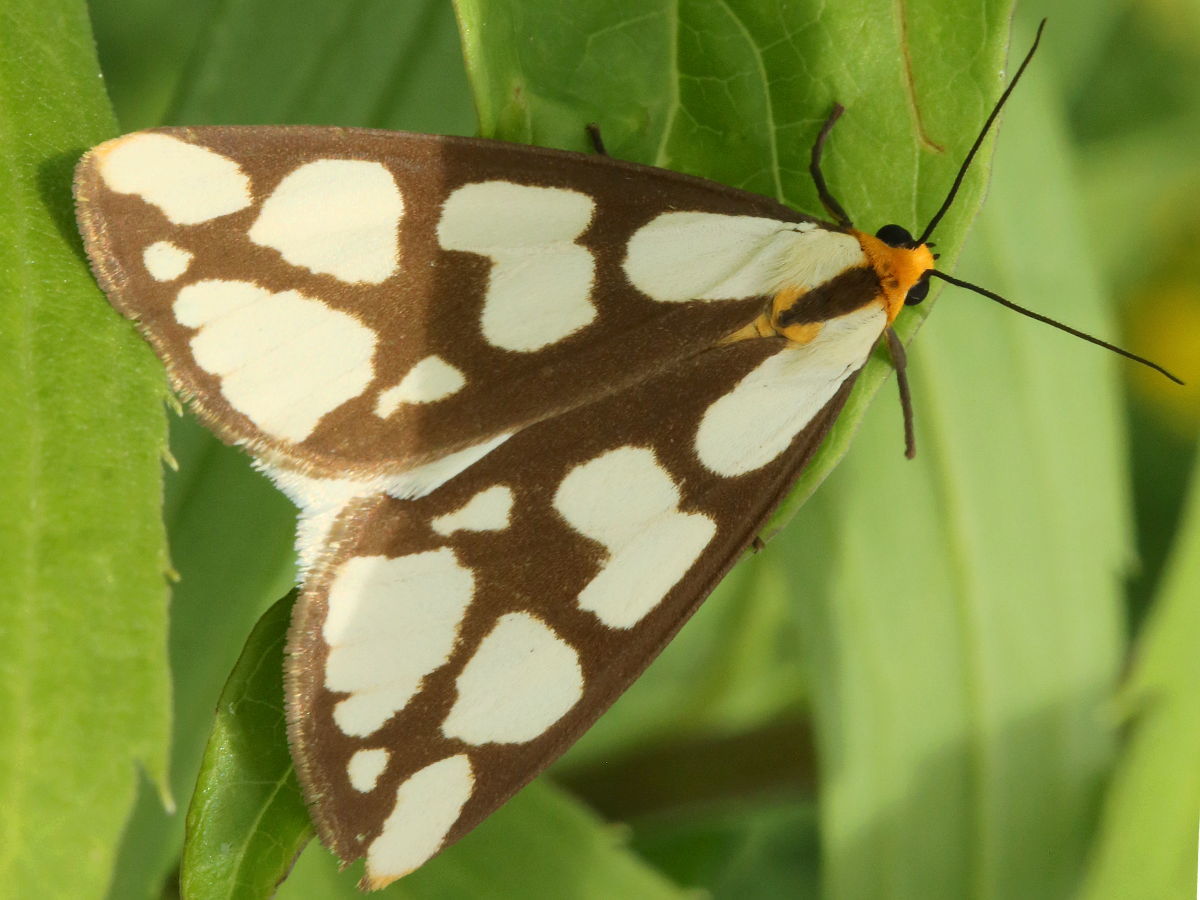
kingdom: Animalia
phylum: Arthropoda
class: Insecta
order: Lepidoptera
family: Erebidae
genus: Haploa
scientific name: Haploa confusa
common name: Confused haploa moth
